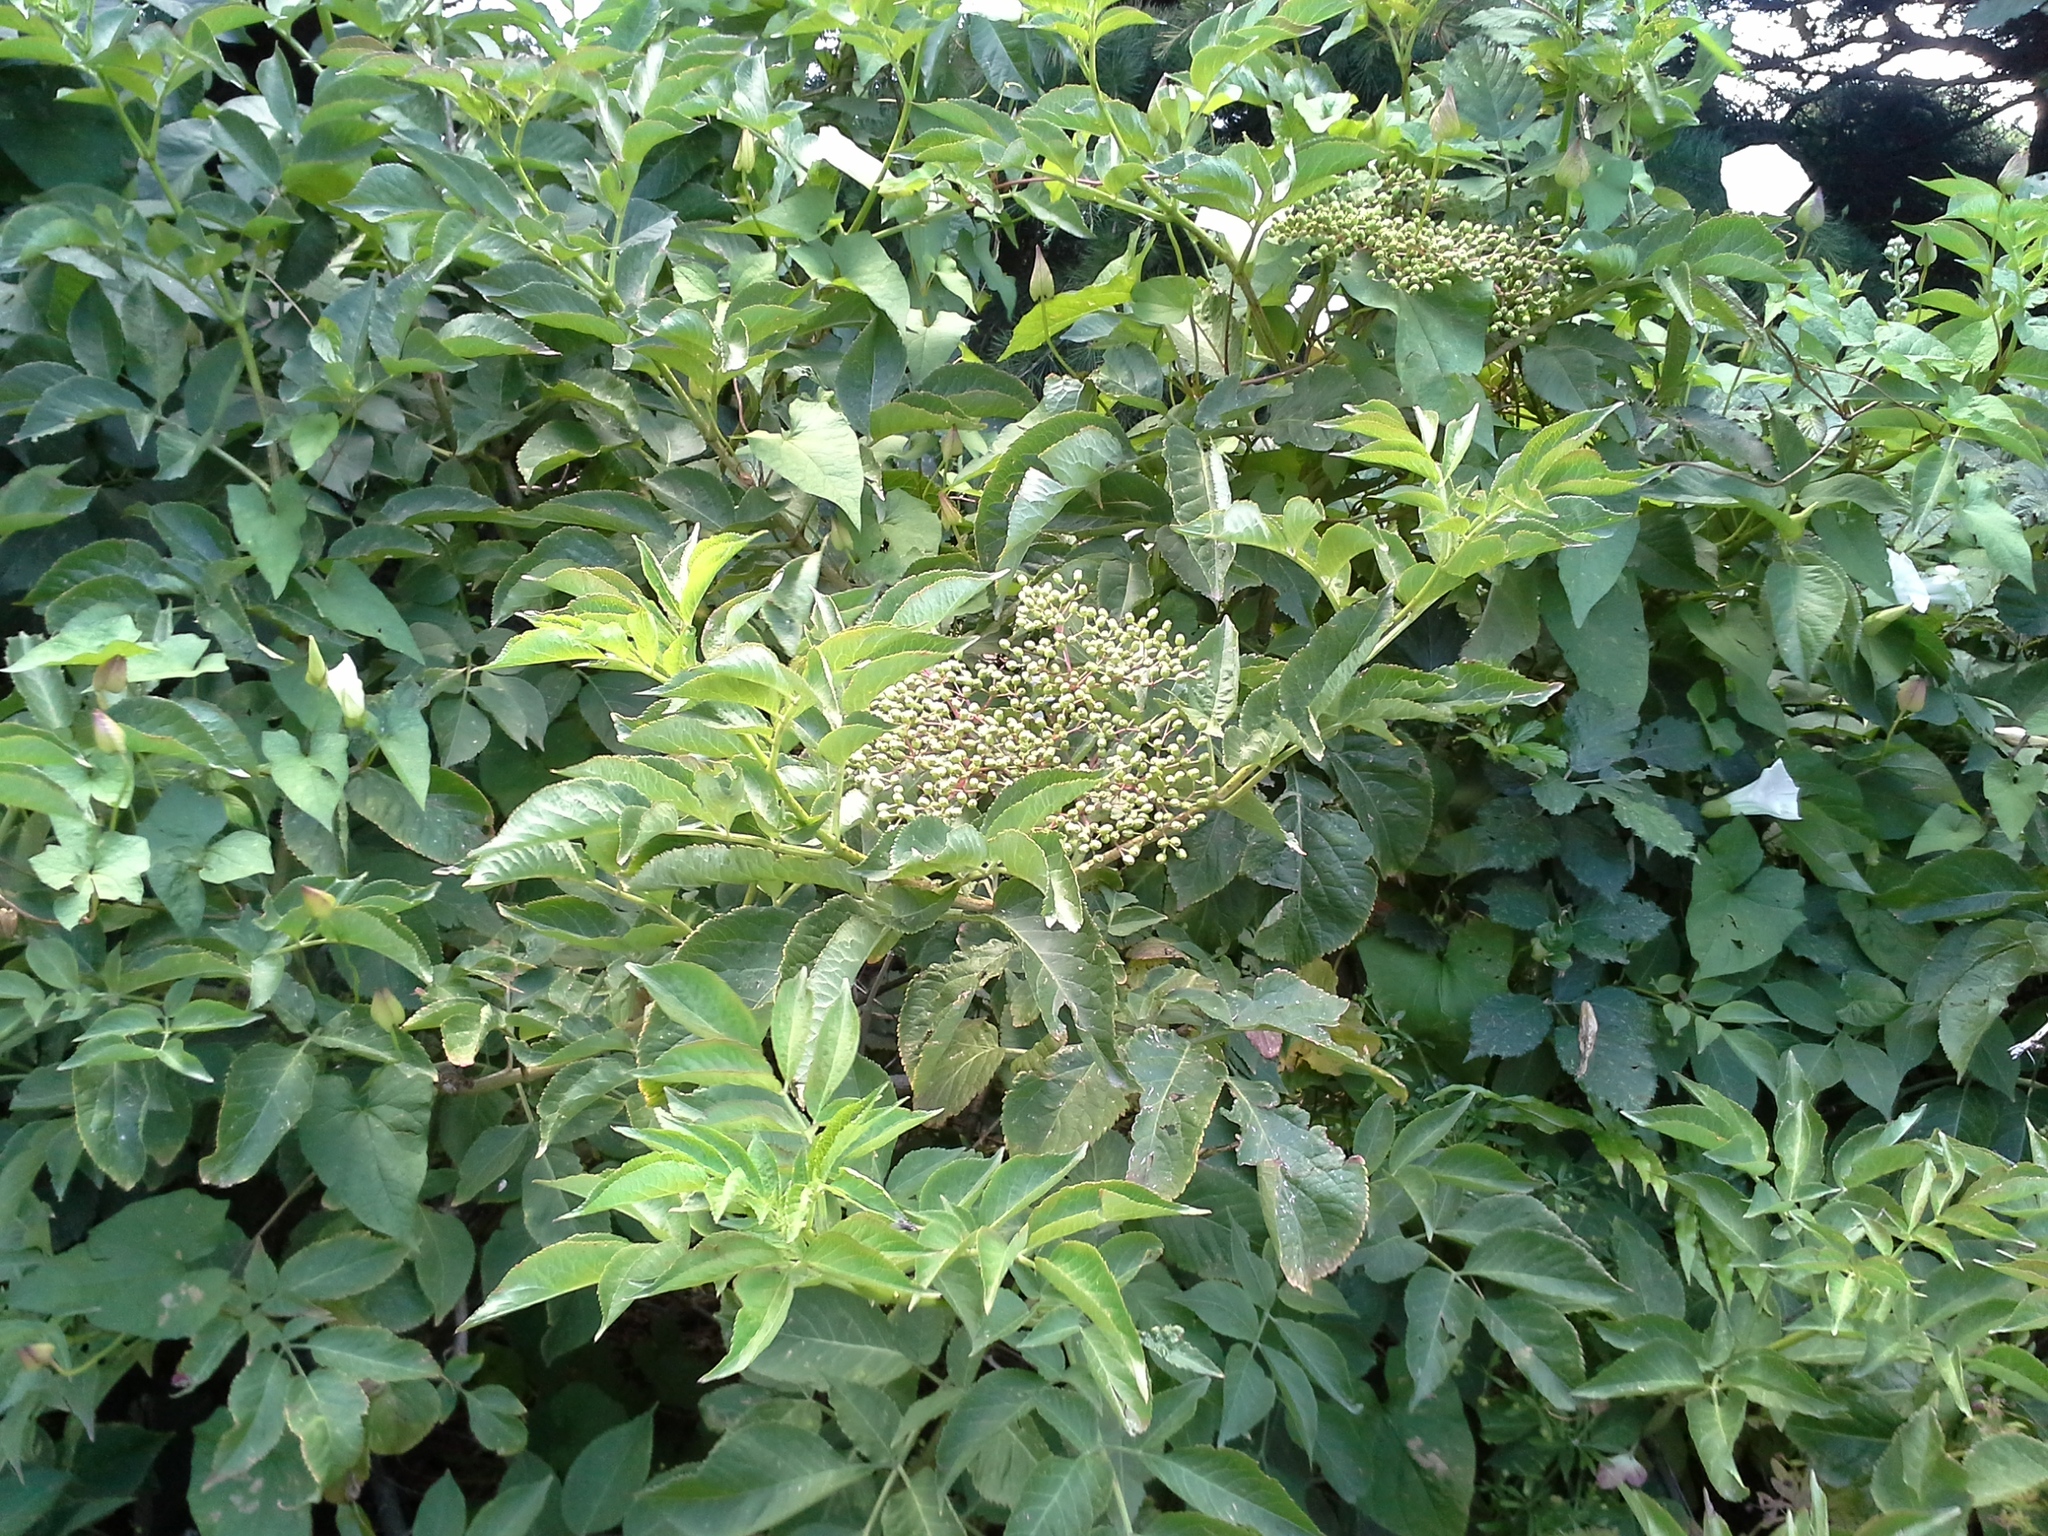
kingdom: Plantae
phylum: Tracheophyta
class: Magnoliopsida
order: Dipsacales
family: Viburnaceae
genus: Sambucus
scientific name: Sambucus nigra
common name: Elder
